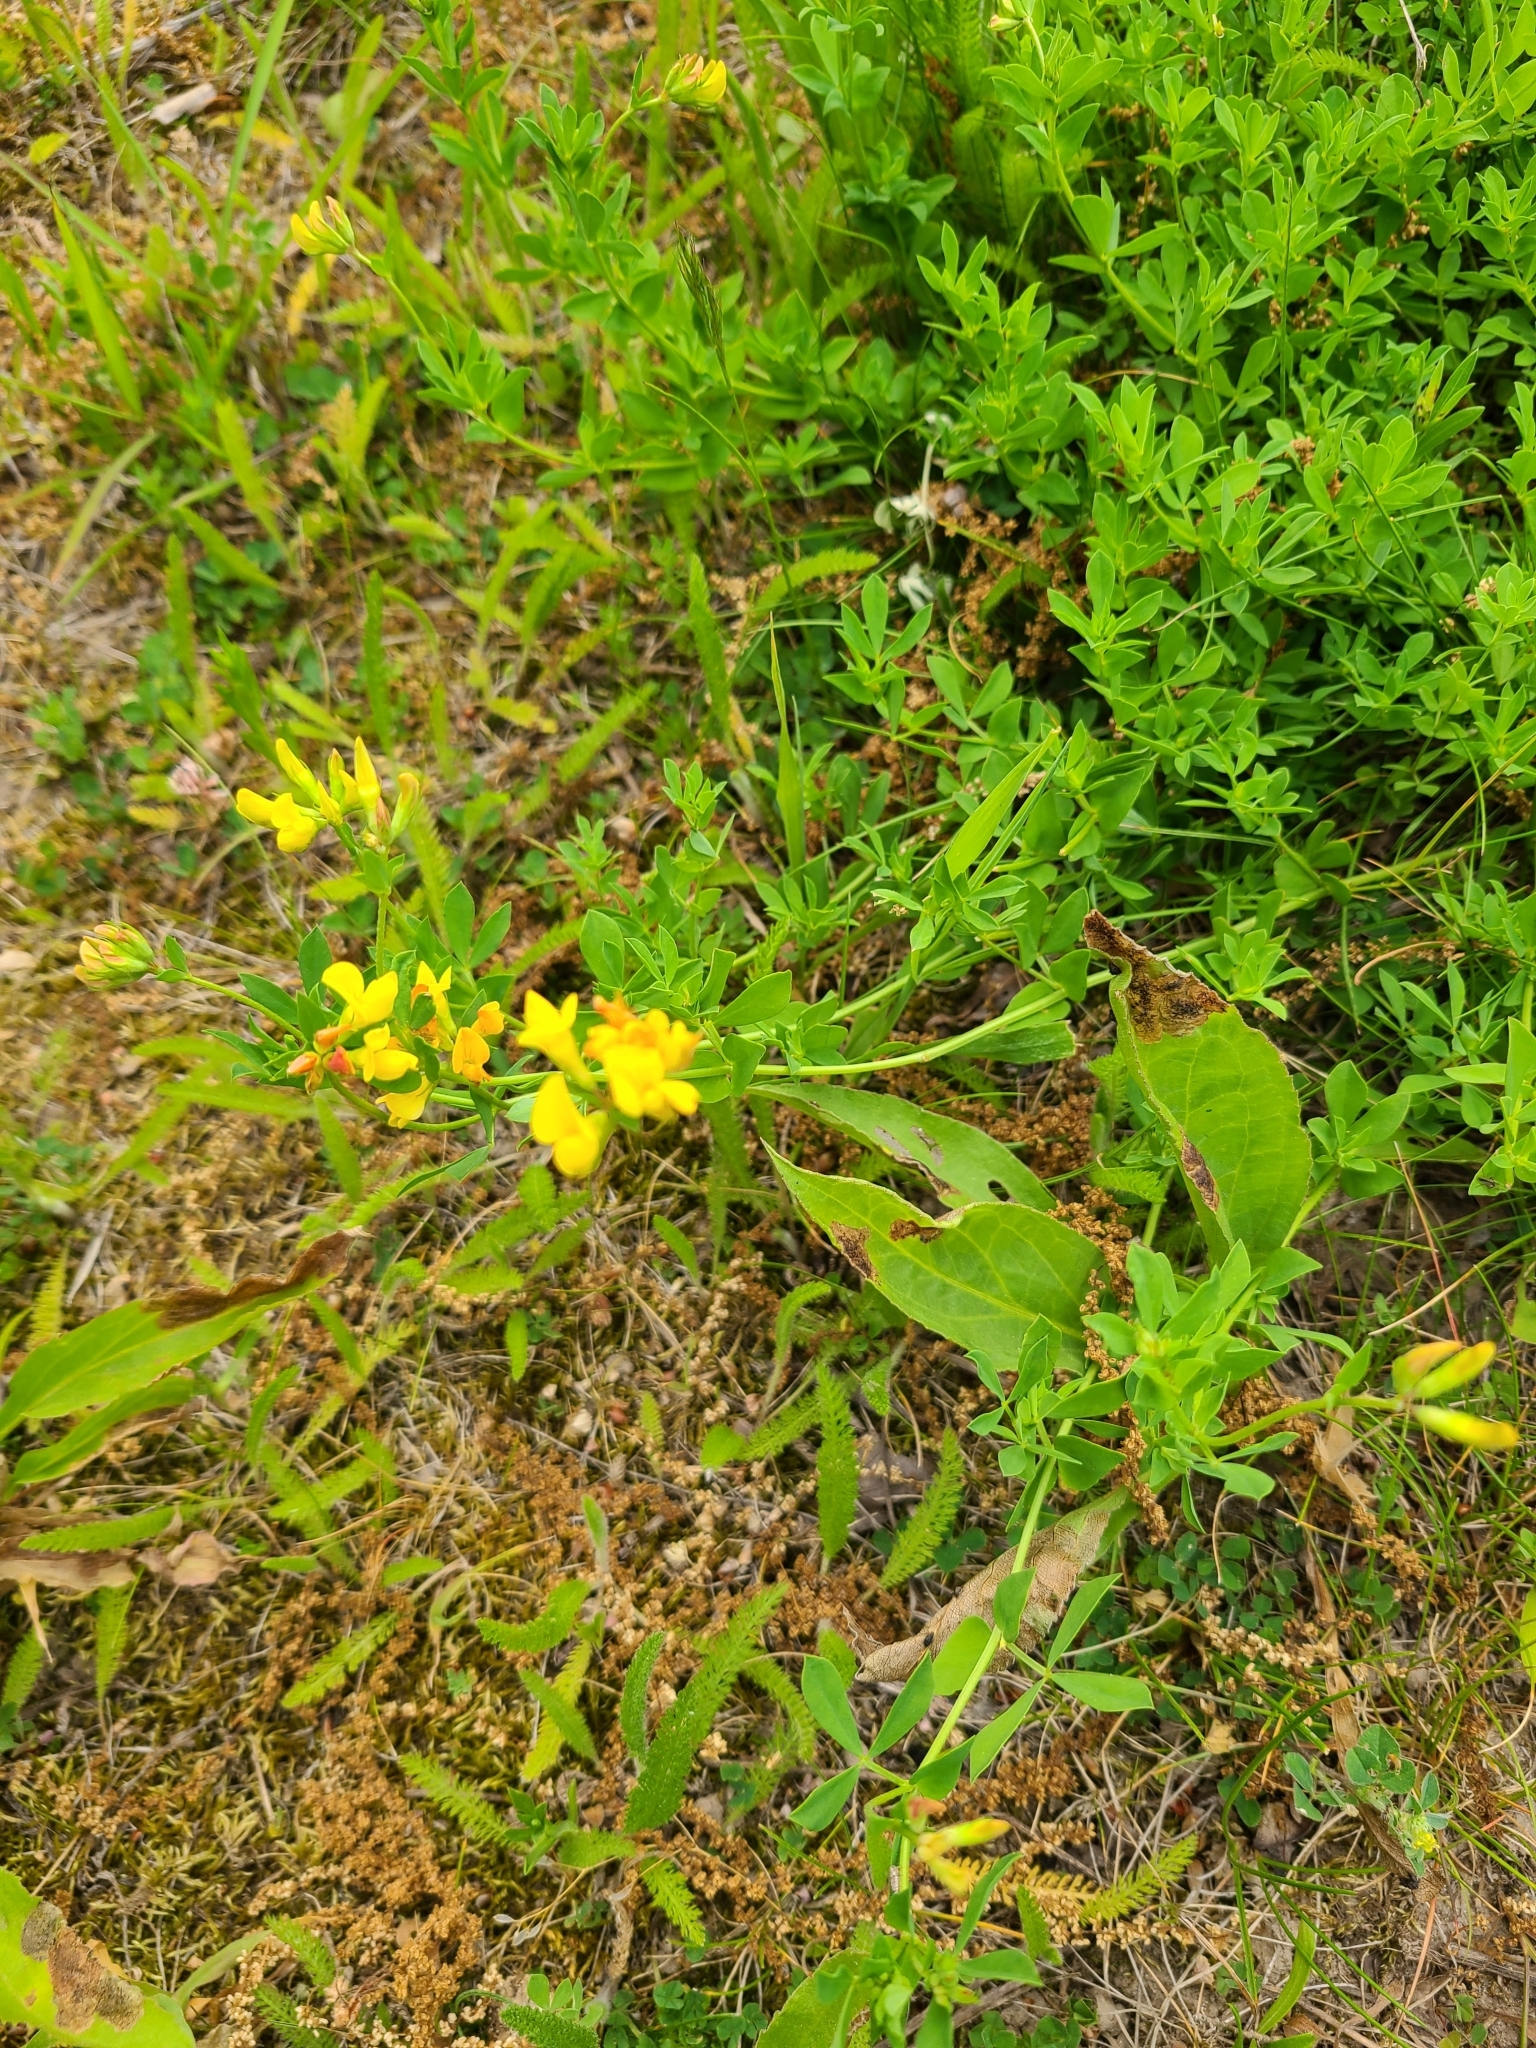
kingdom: Plantae
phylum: Tracheophyta
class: Magnoliopsida
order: Fabales
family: Fabaceae
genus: Lotus
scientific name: Lotus corniculatus
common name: Common bird's-foot-trefoil
